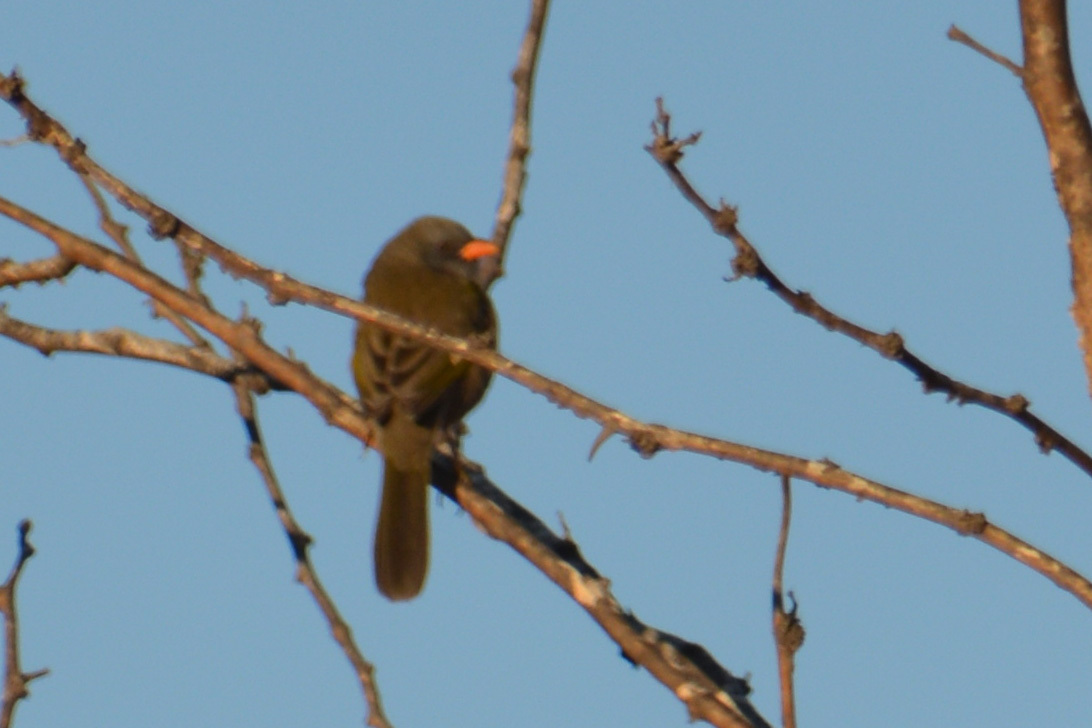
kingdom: Animalia
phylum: Chordata
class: Aves
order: Passeriformes
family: Thraupidae
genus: Embernagra
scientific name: Embernagra platensis
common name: Pampa finch
